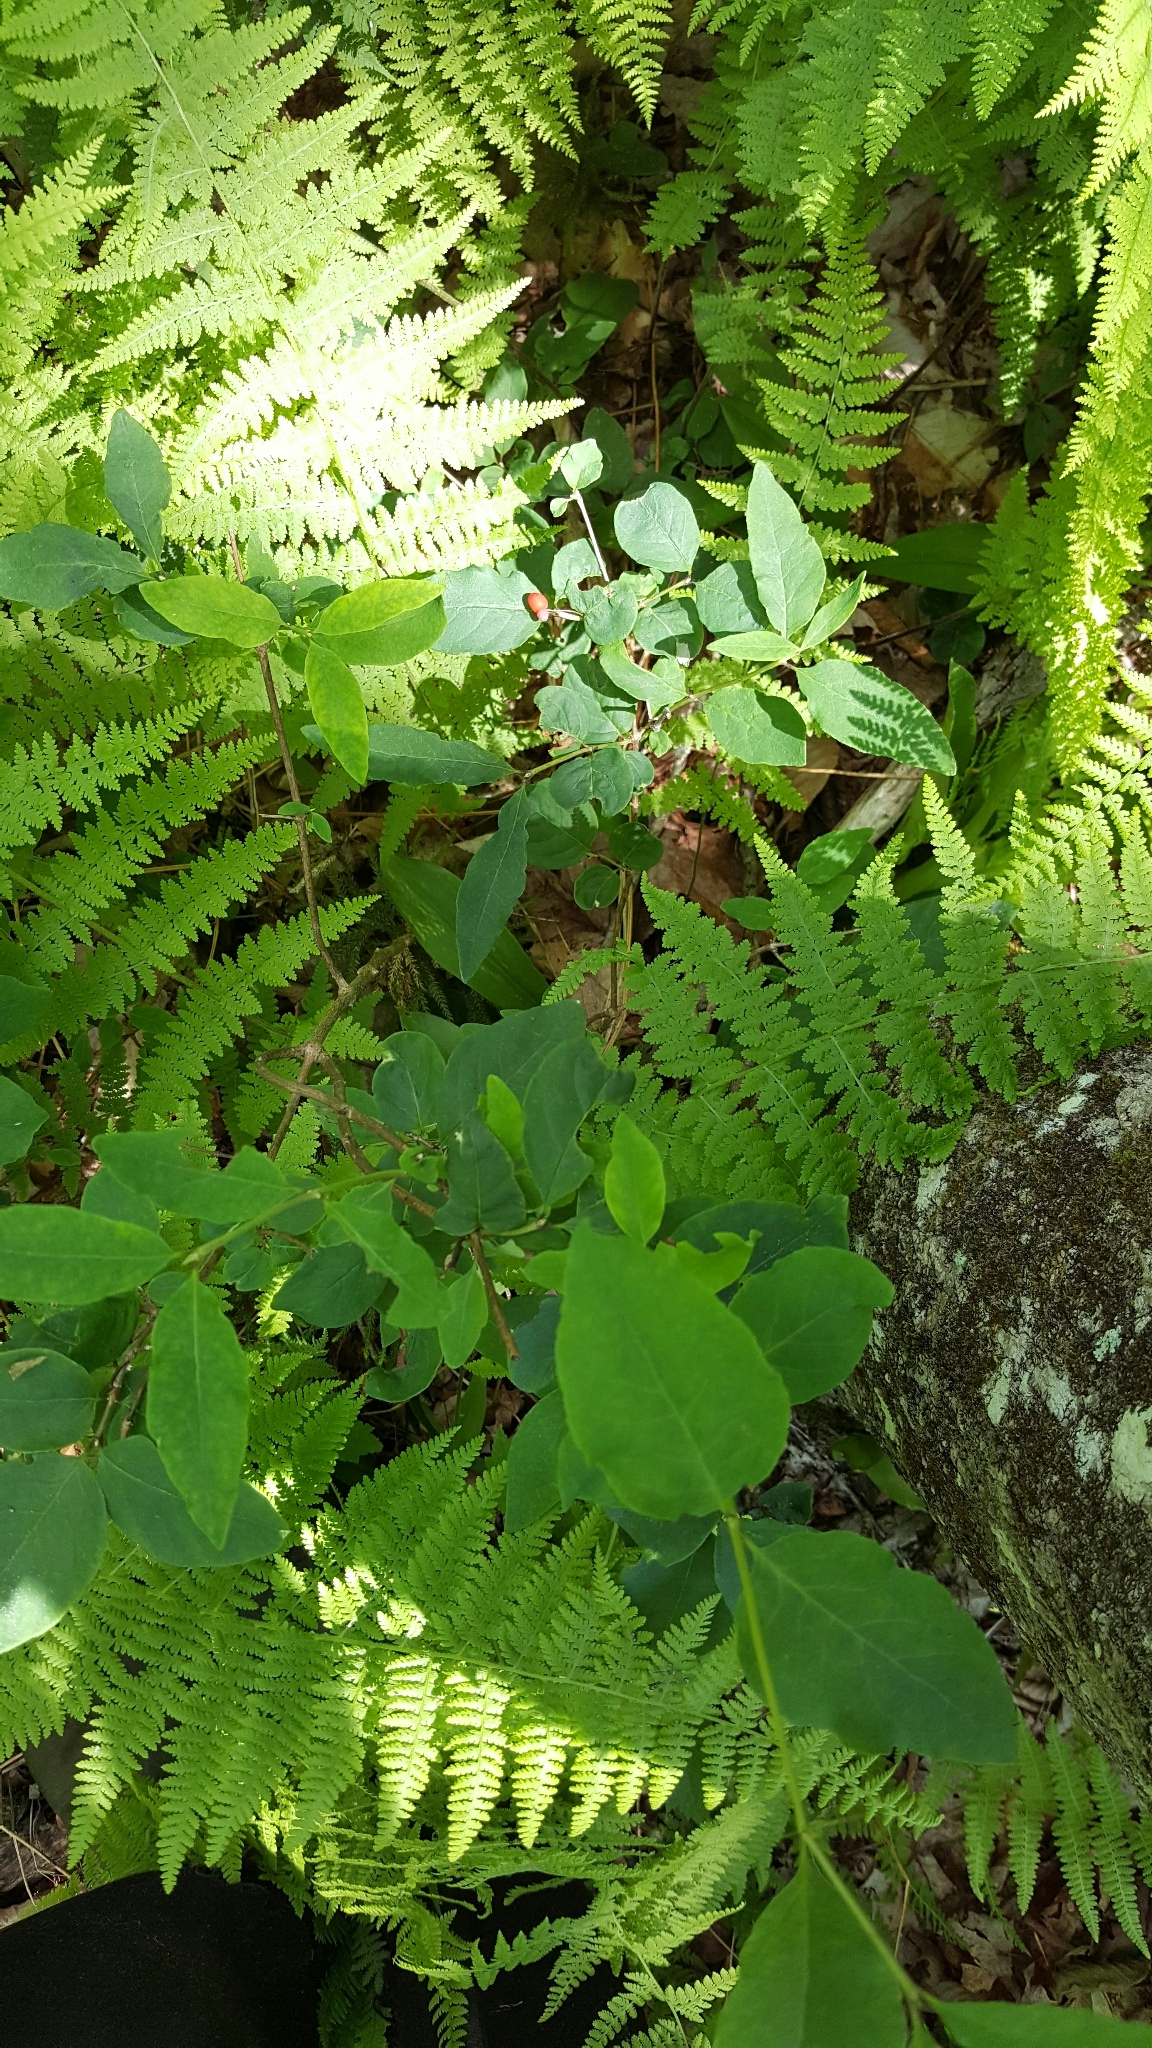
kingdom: Plantae
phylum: Tracheophyta
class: Magnoliopsida
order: Dipsacales
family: Caprifoliaceae
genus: Lonicera
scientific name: Lonicera canadensis
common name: American fly-honeysuckle
